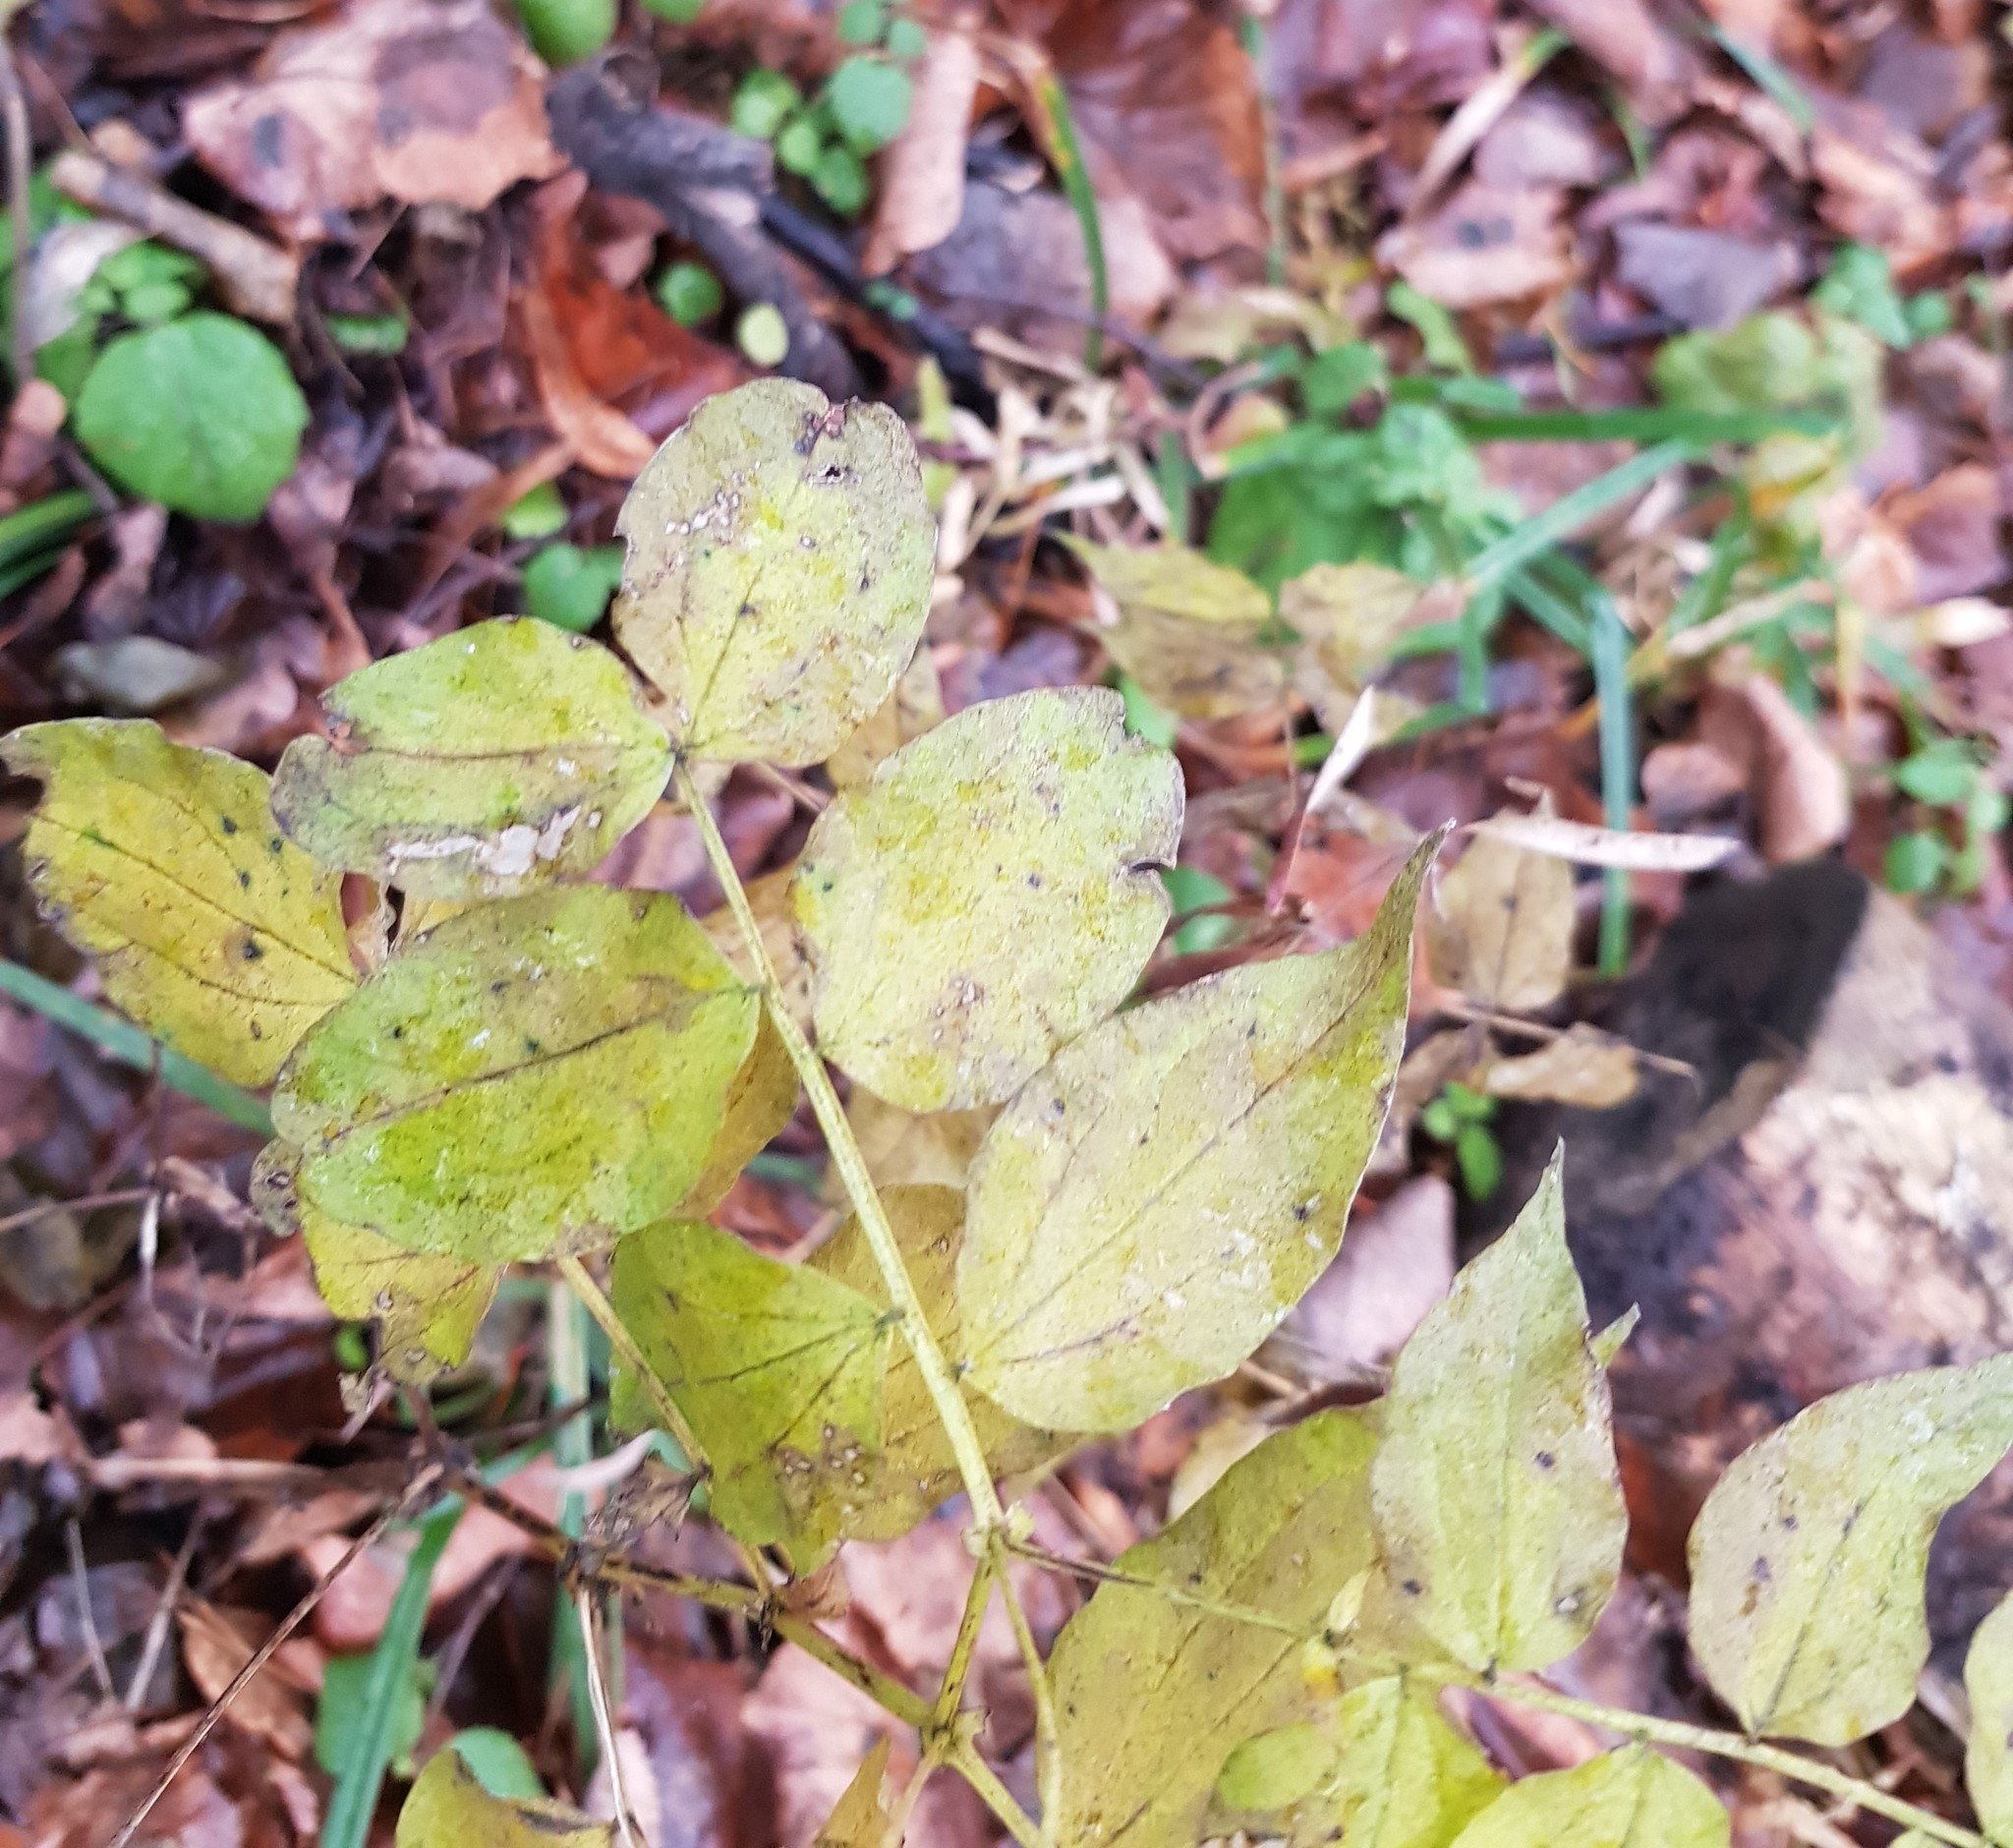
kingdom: Plantae
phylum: Tracheophyta
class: Magnoliopsida
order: Fabales
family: Fabaceae
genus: Lathyrus
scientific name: Lathyrus vernus
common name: Spring pea
